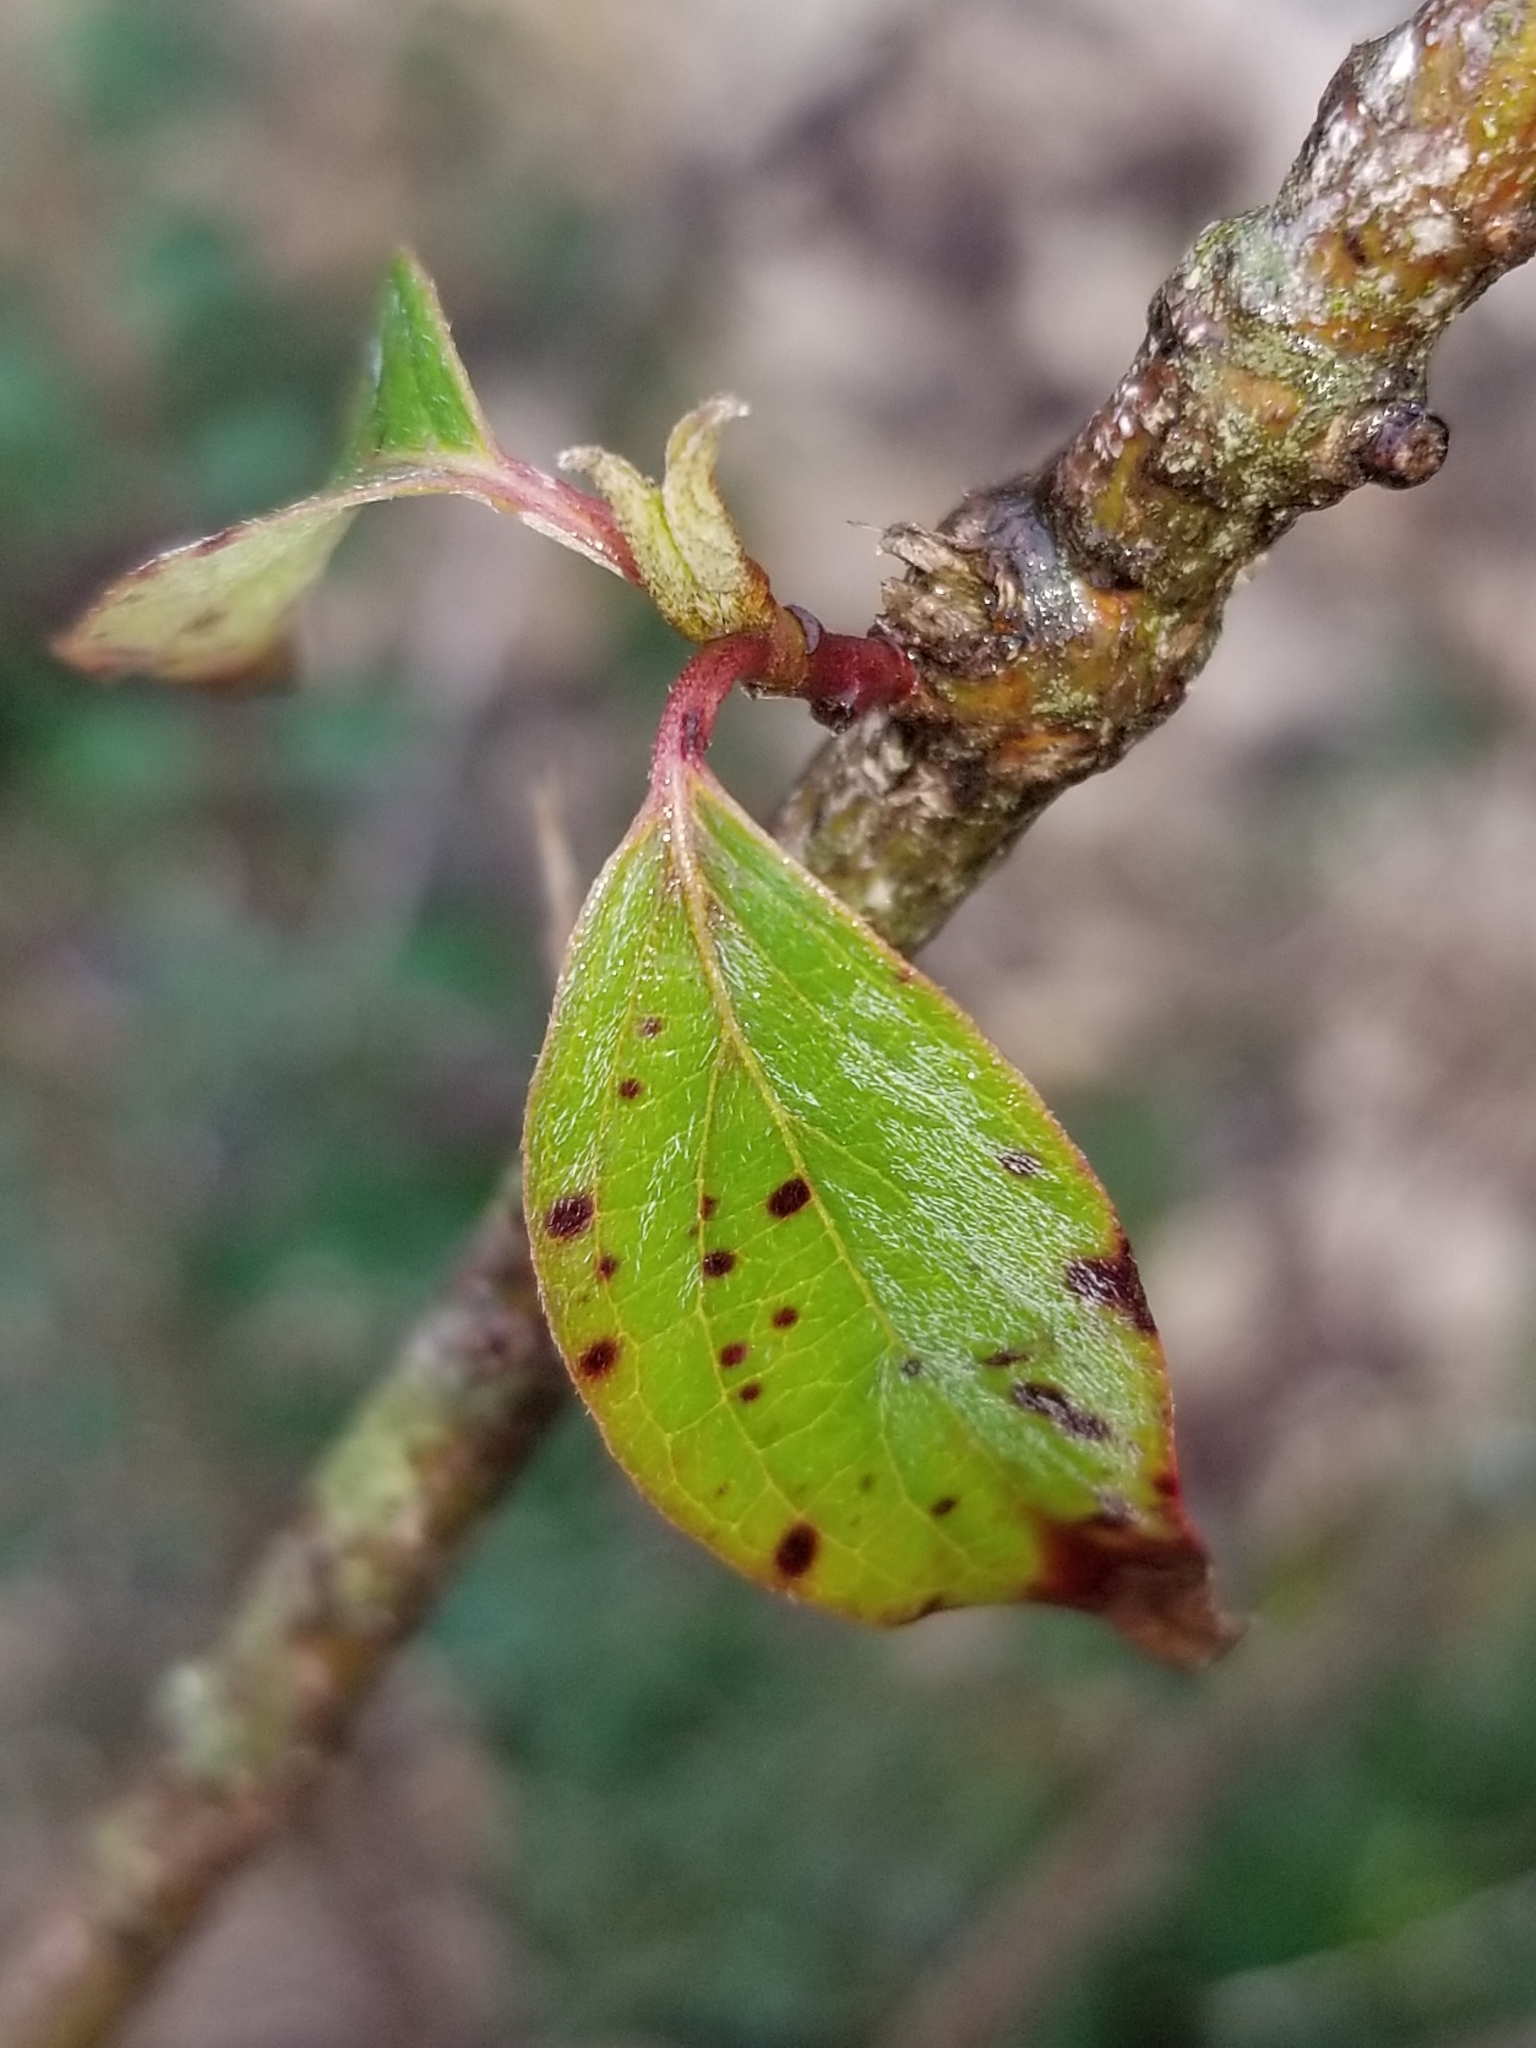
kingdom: Plantae
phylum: Tracheophyta
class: Magnoliopsida
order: Cornales
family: Cornaceae
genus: Cornus
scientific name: Cornus drummondii
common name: Rough-leaf dogwood
